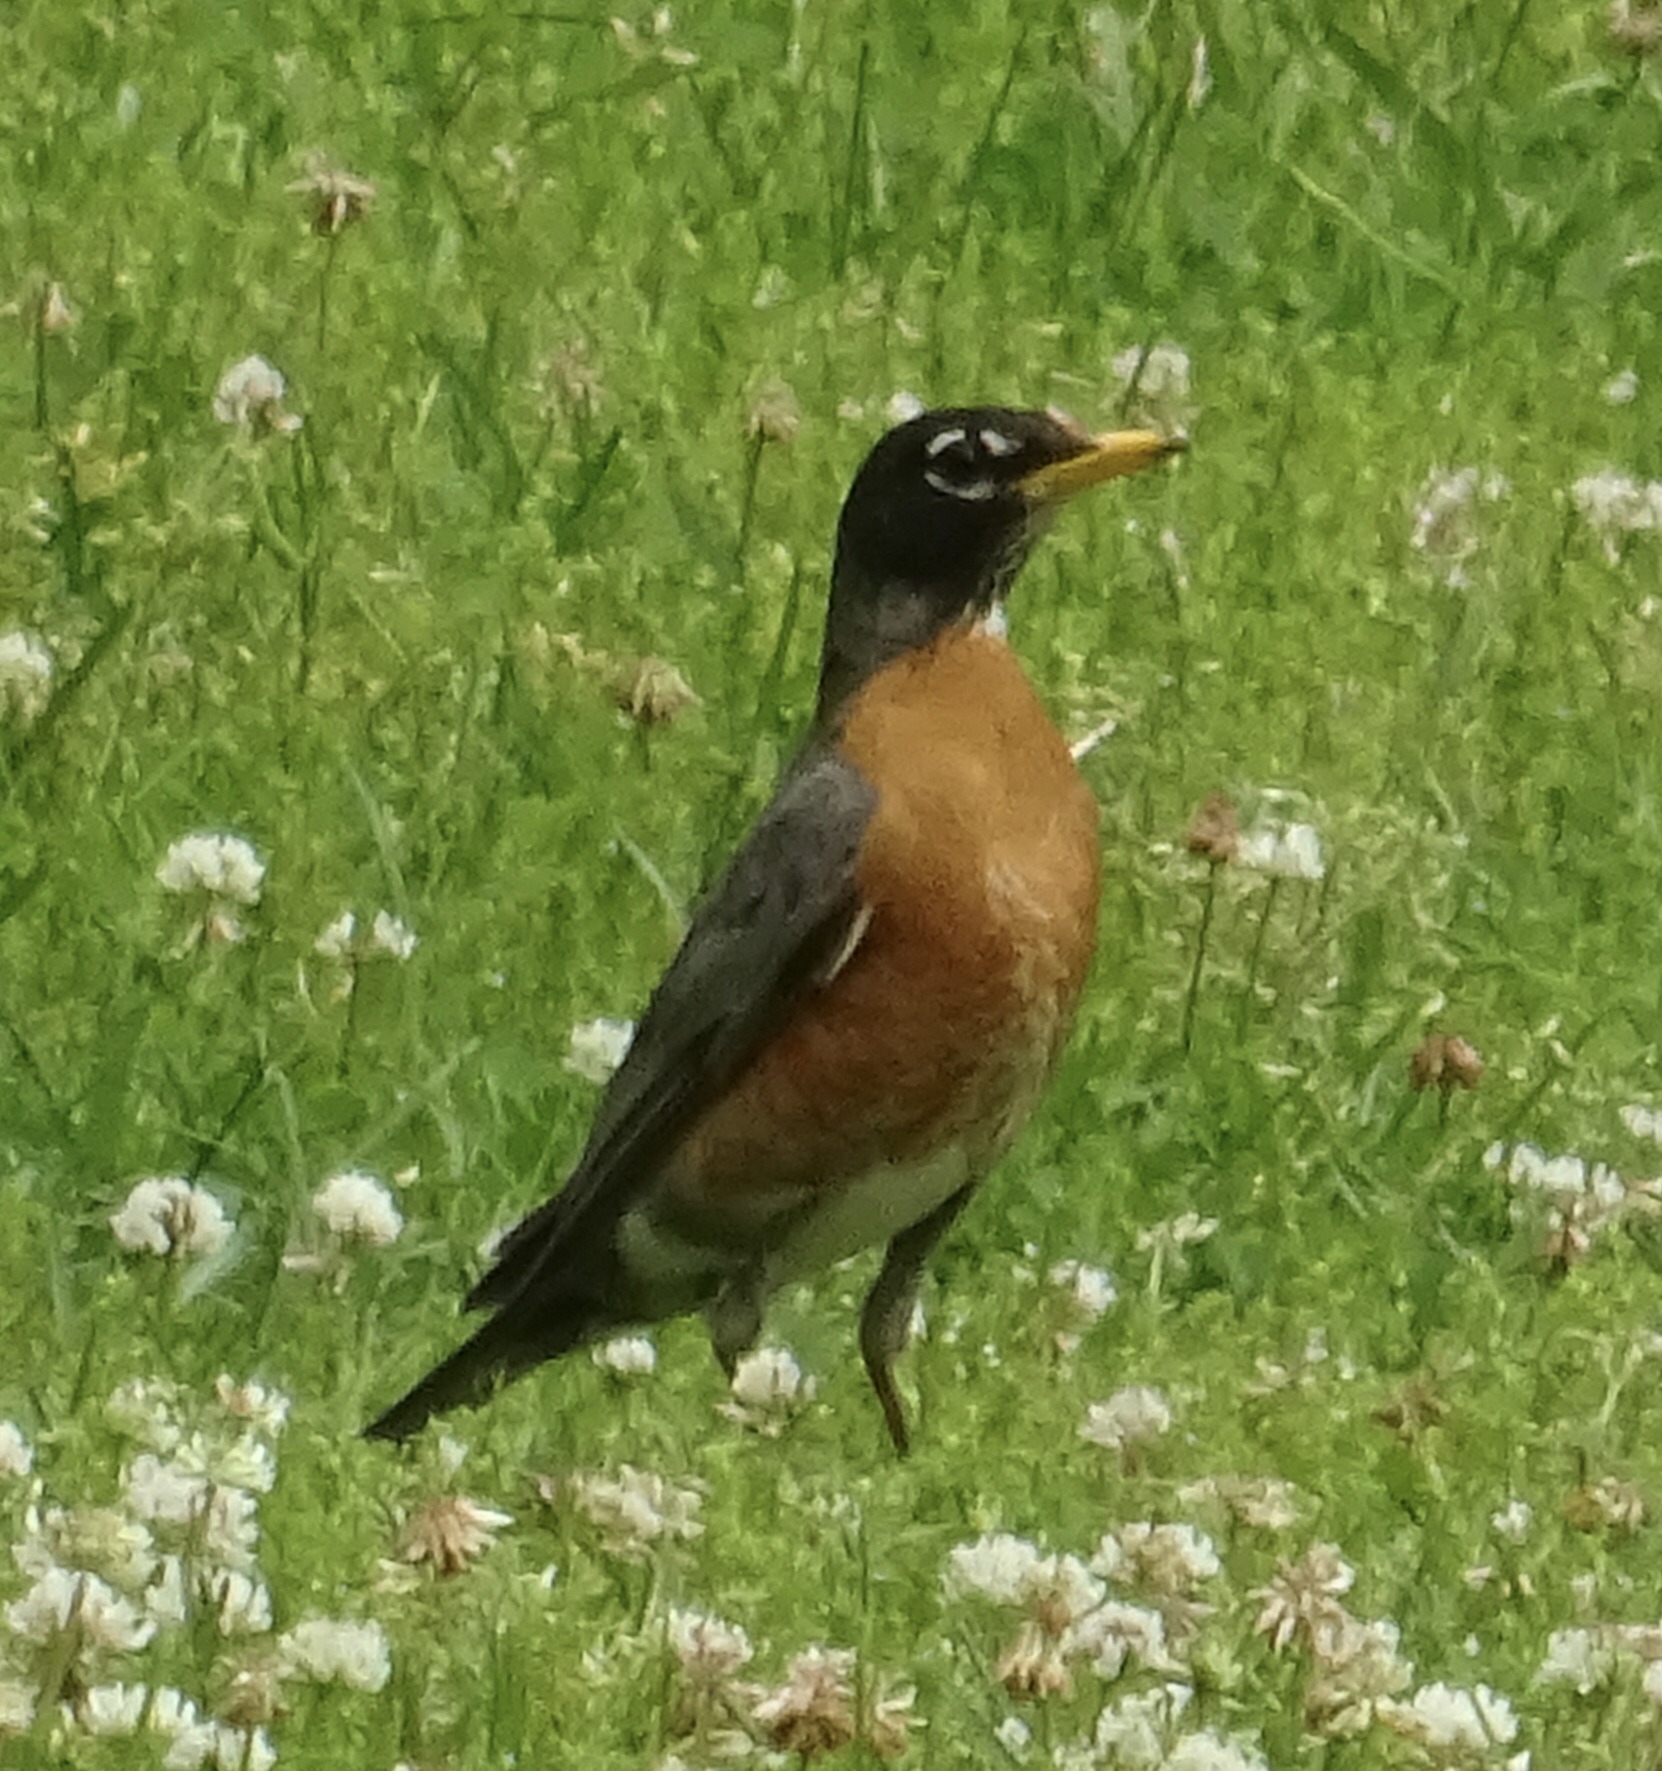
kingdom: Animalia
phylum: Chordata
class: Aves
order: Passeriformes
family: Turdidae
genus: Turdus
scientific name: Turdus migratorius
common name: American robin
